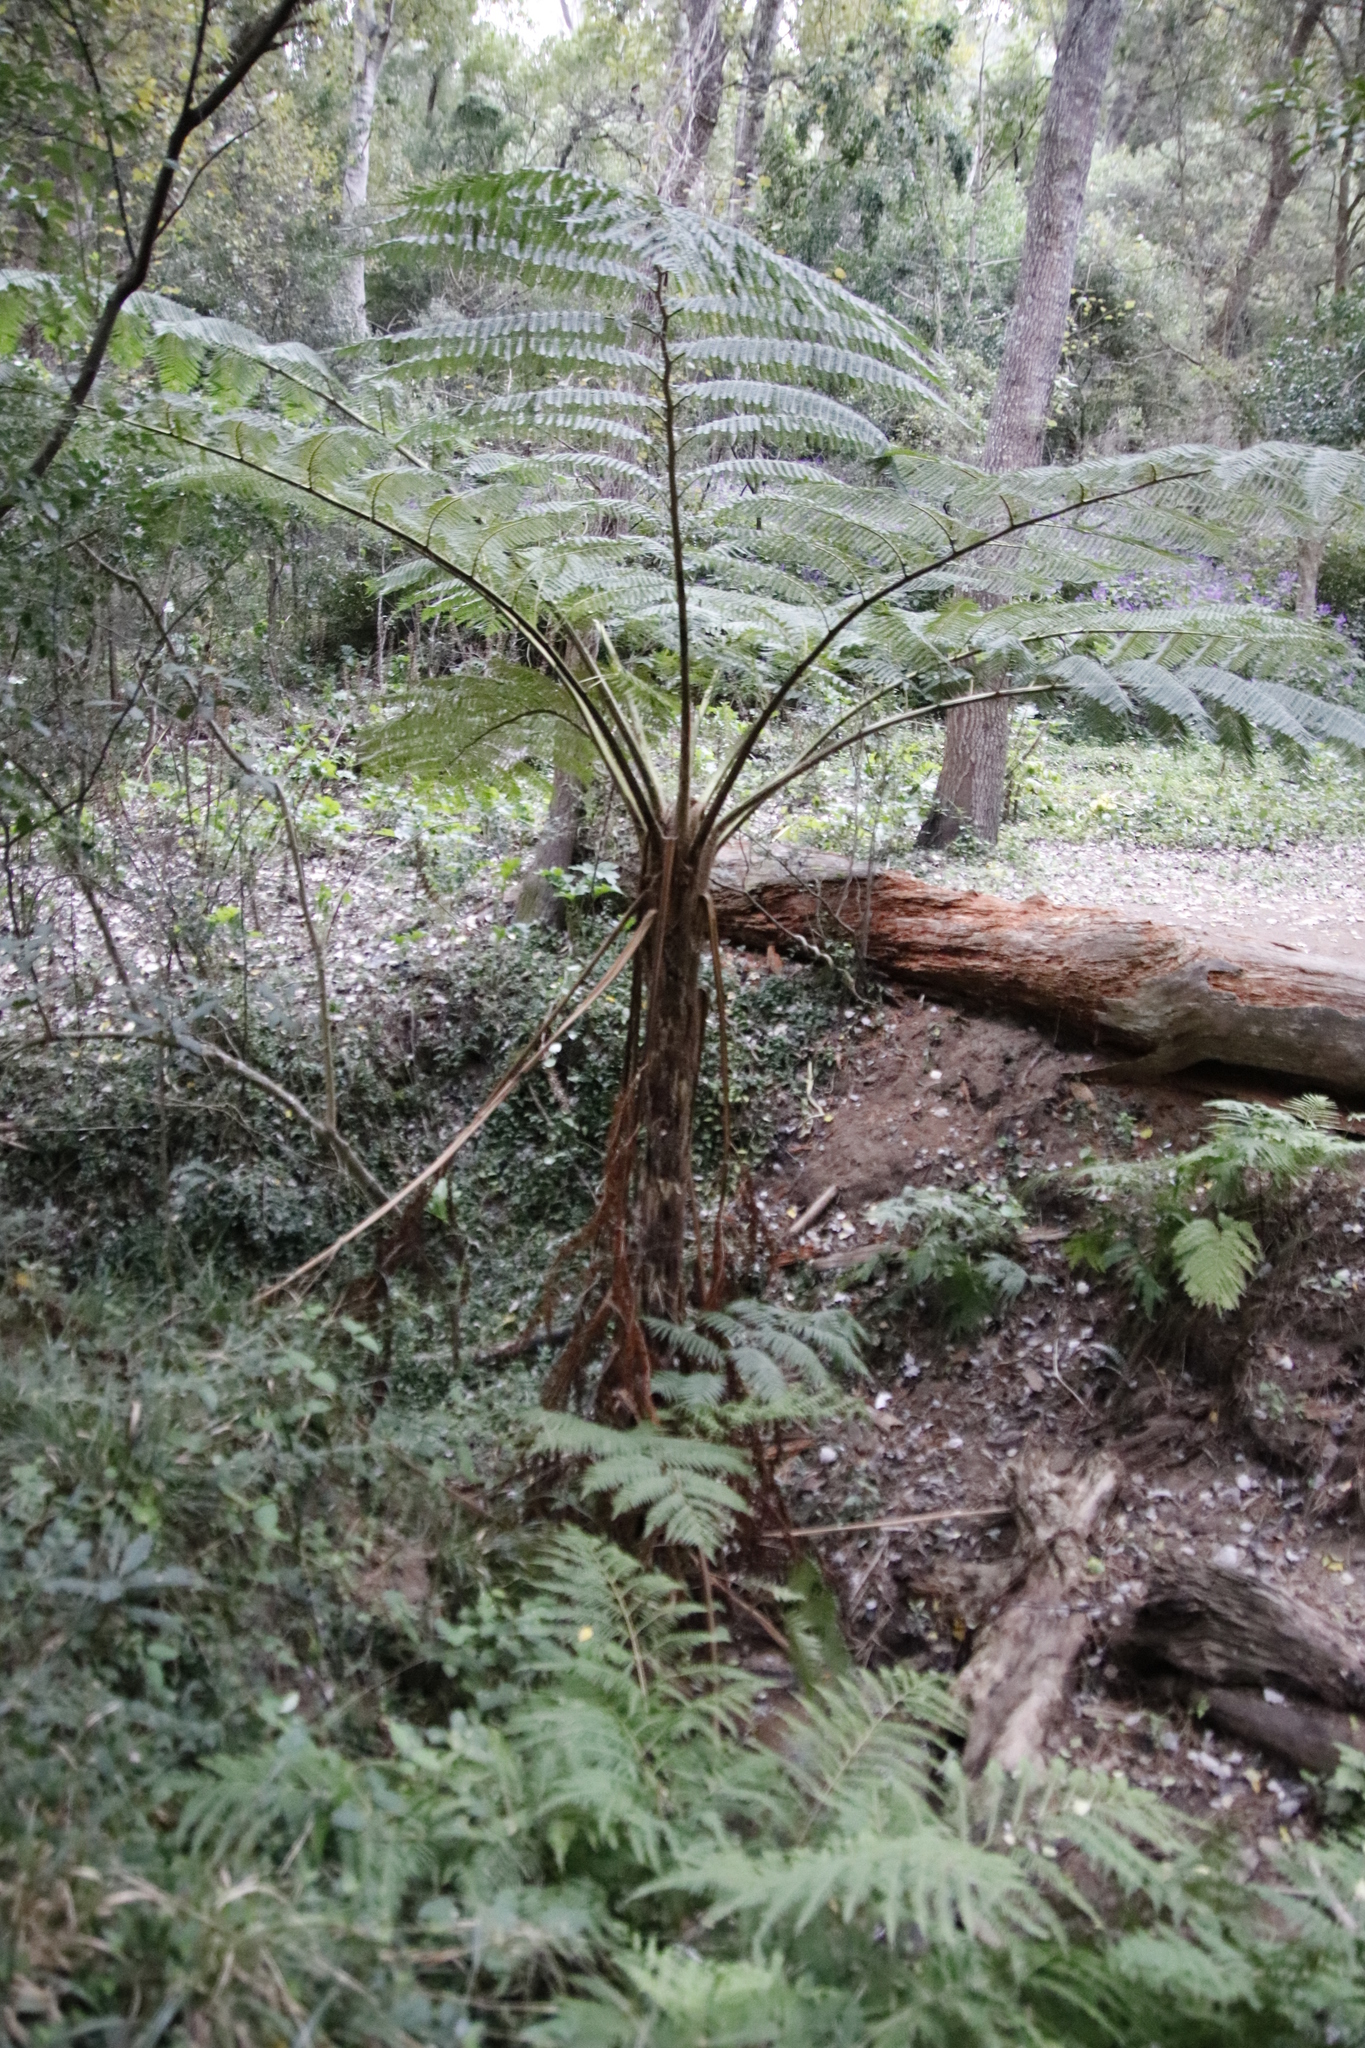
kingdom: Plantae
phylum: Tracheophyta
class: Polypodiopsida
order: Cyatheales
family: Cyatheaceae
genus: Sphaeropteris
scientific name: Sphaeropteris cooperi
